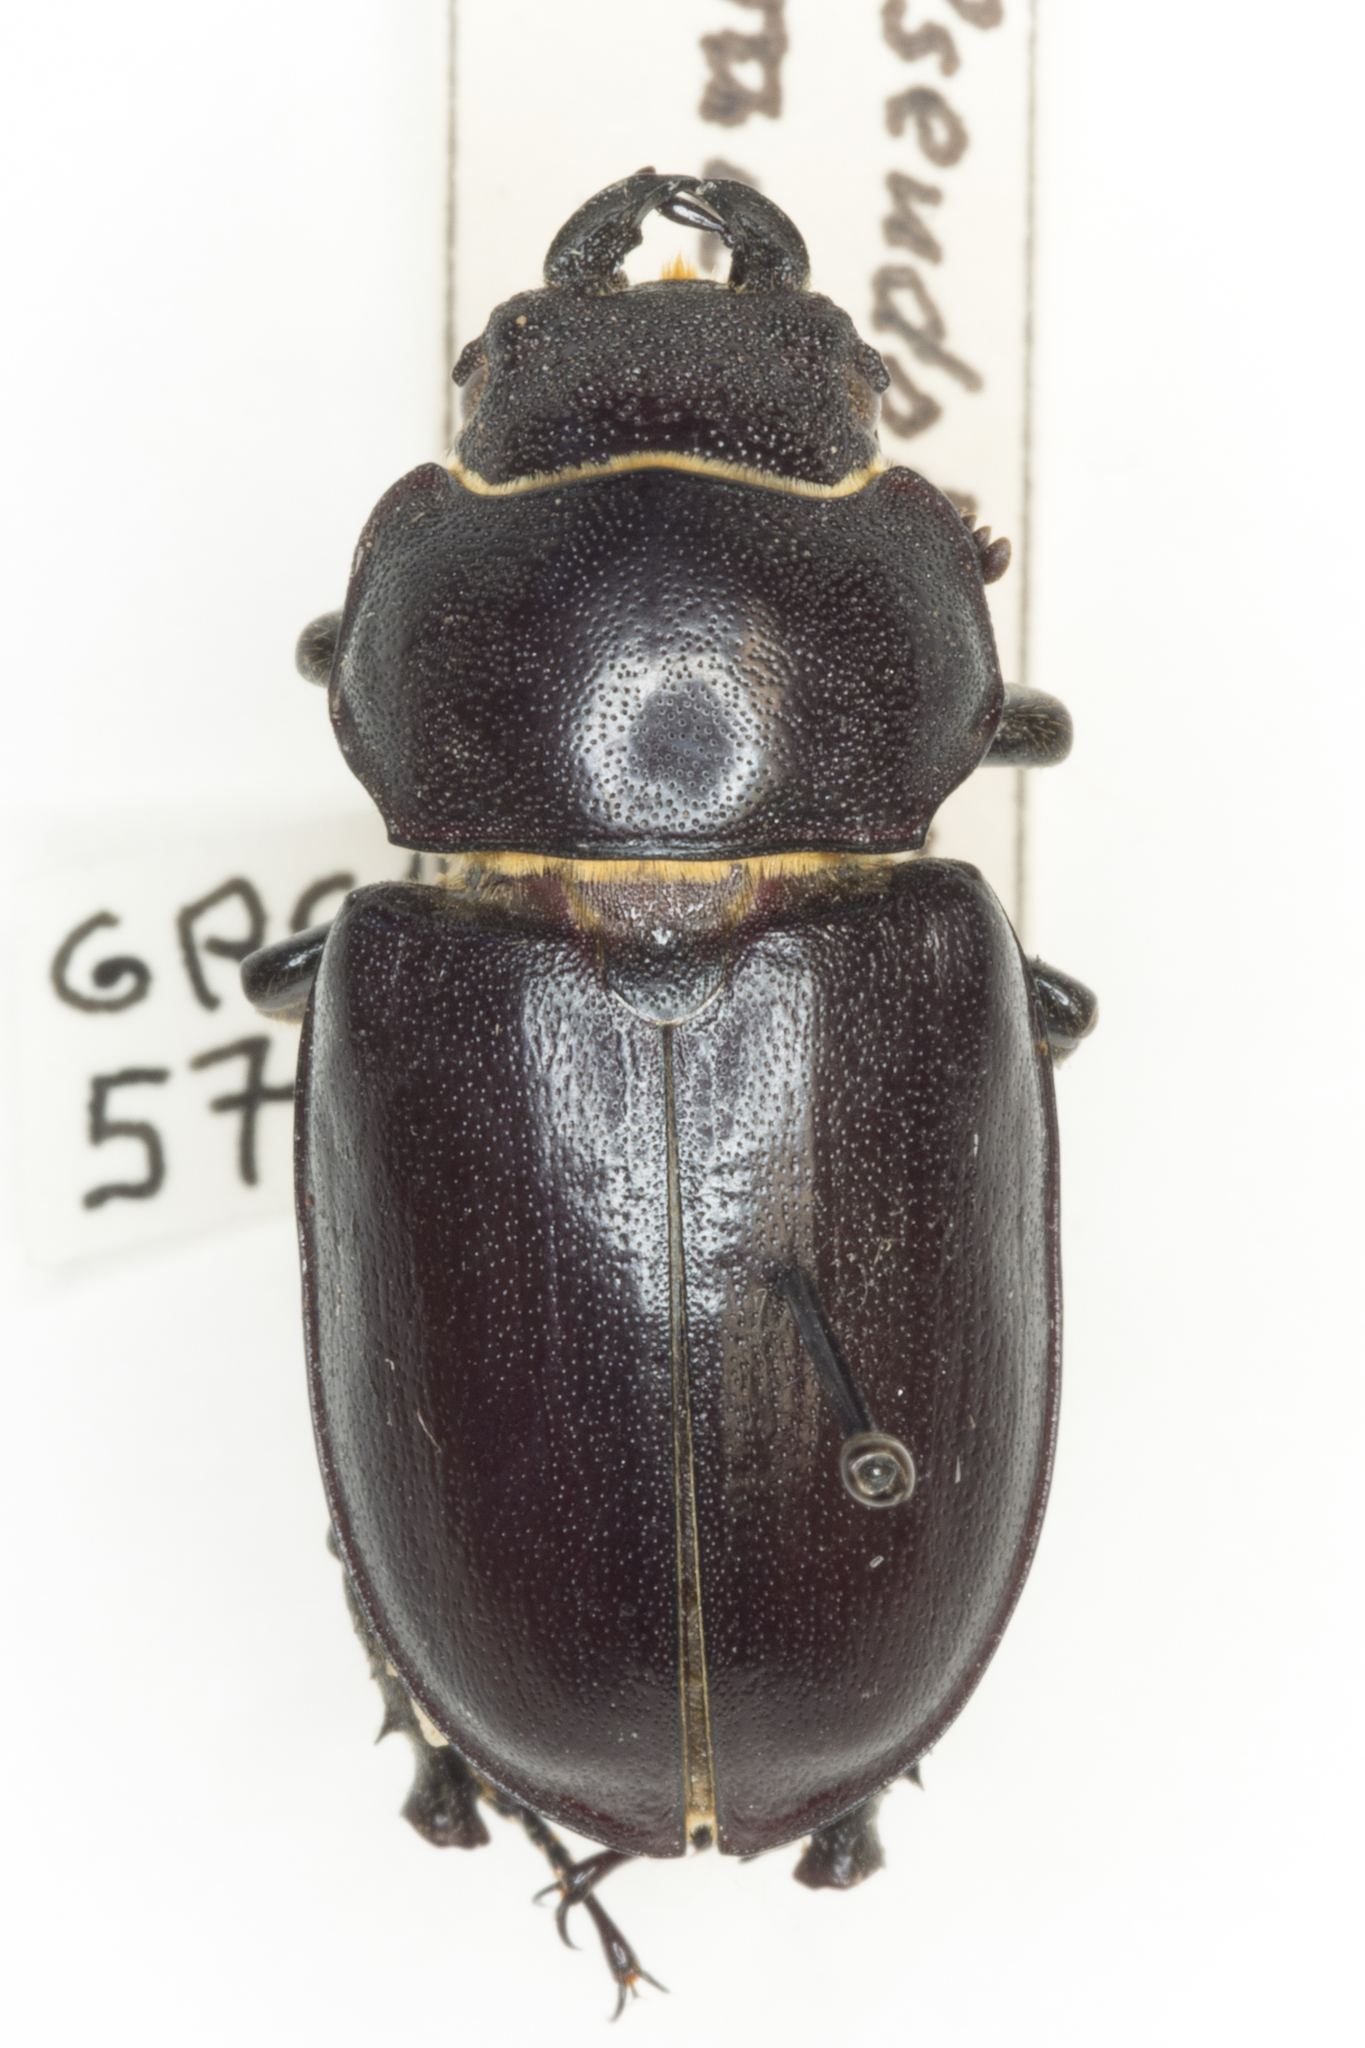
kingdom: Animalia
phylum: Arthropoda
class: Insecta
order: Coleoptera
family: Lucanidae
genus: Lucanus
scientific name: Lucanus mazama
